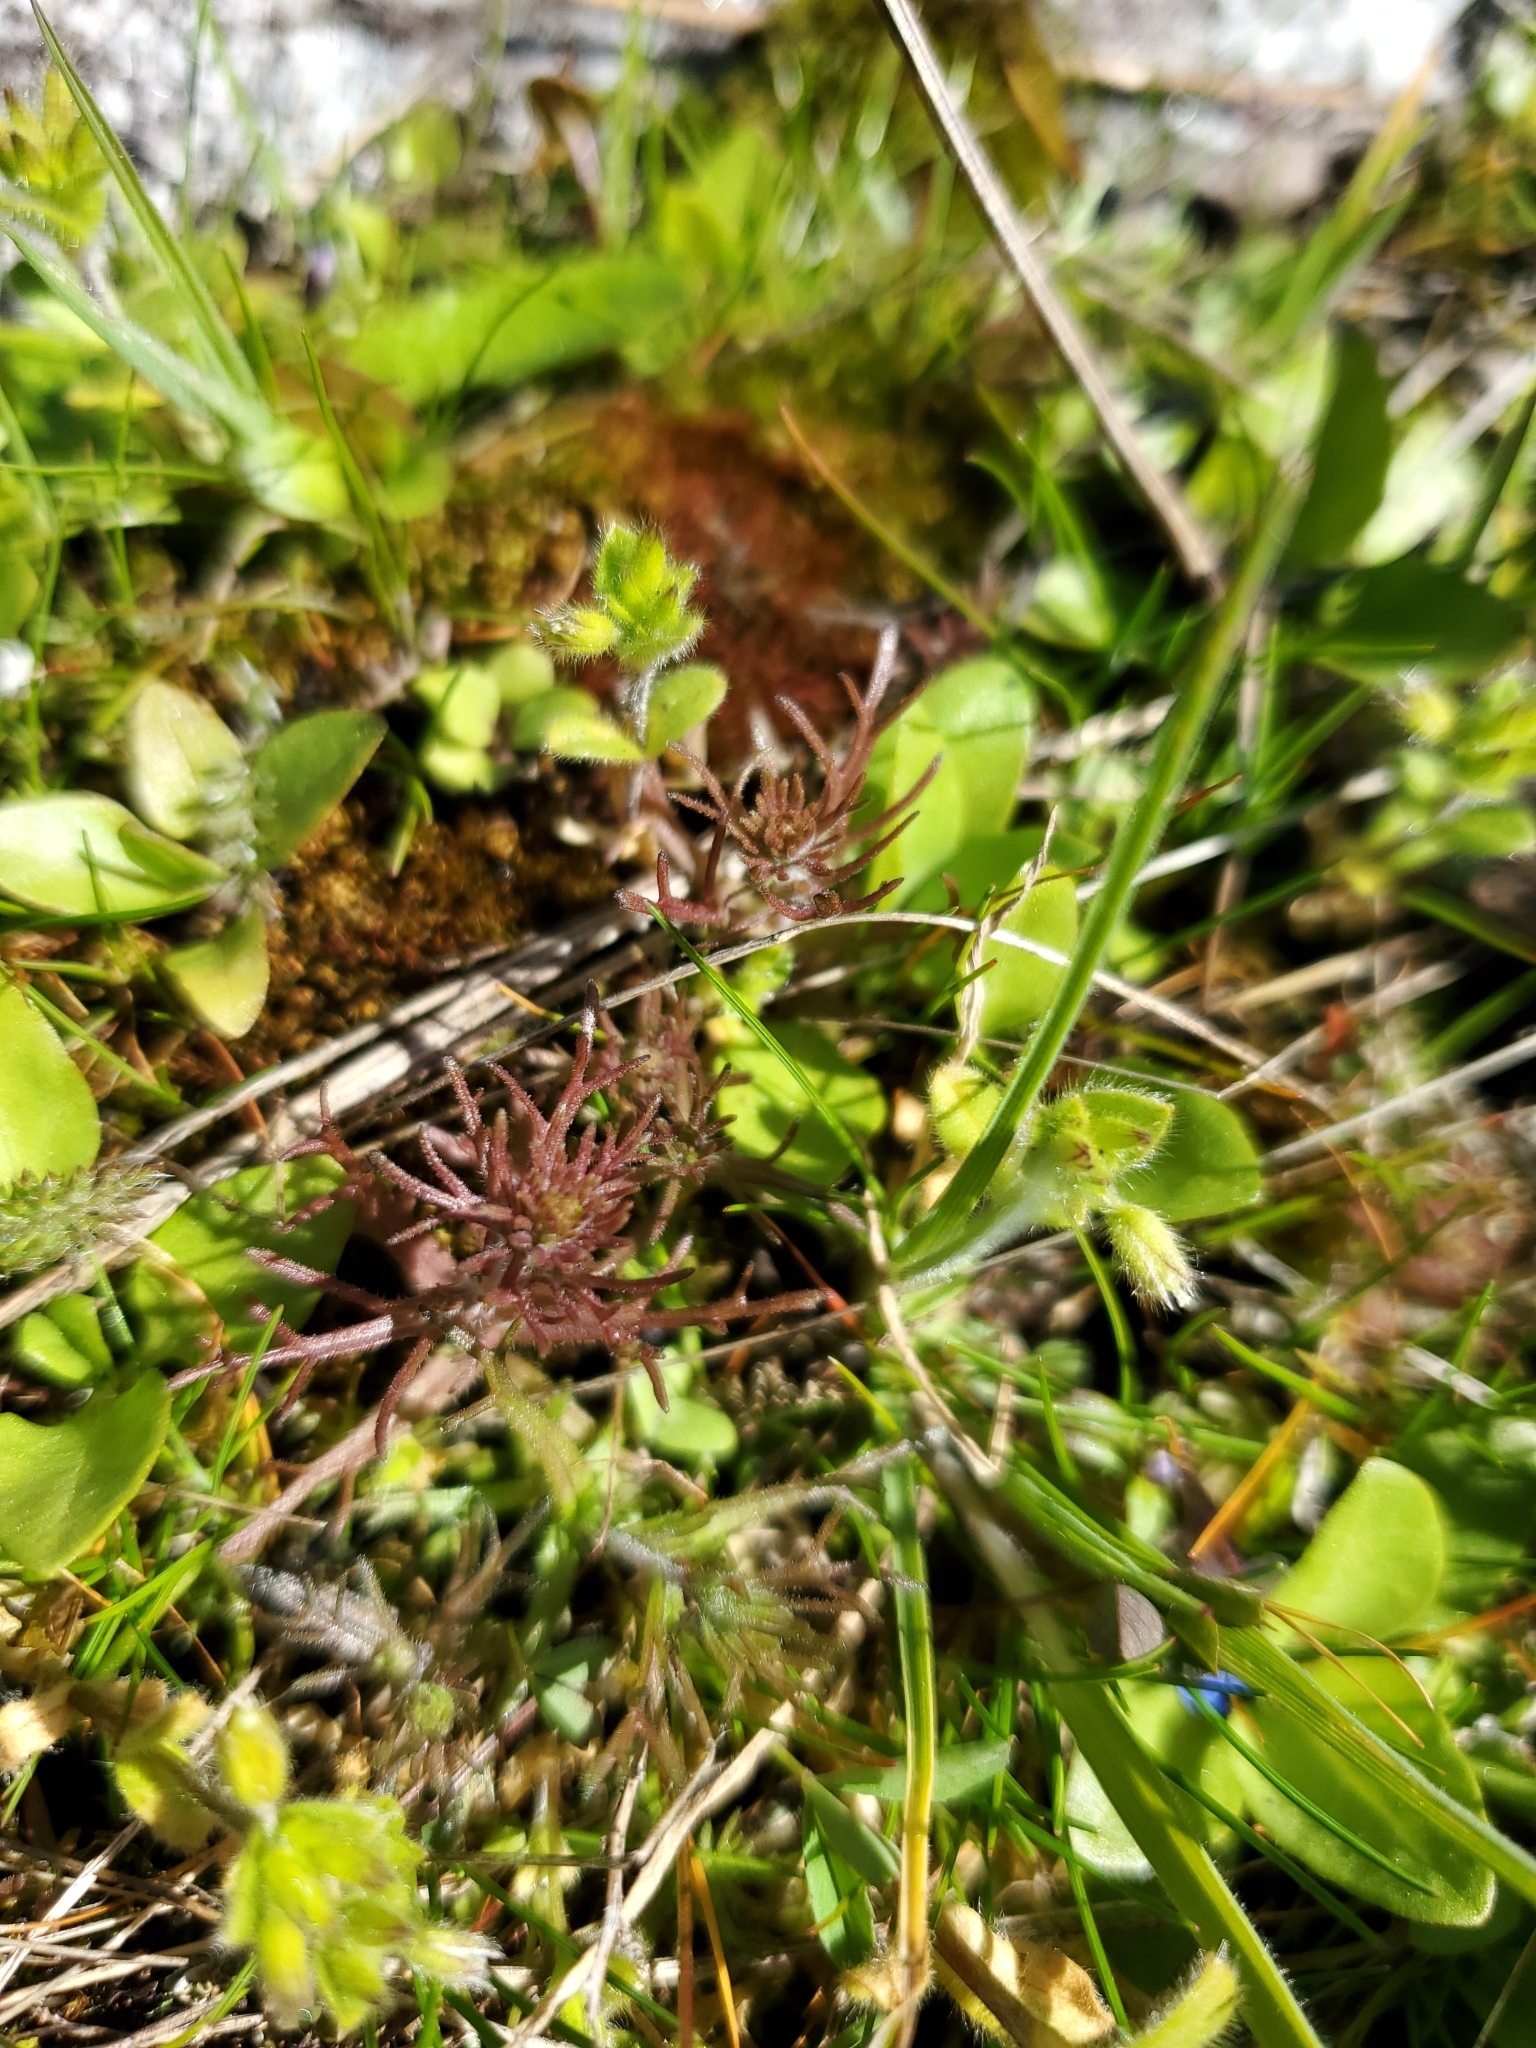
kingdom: Plantae
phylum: Tracheophyta
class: Magnoliopsida
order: Lamiales
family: Orobanchaceae
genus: Triphysaria
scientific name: Triphysaria pusilla
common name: Dwarf false owl-clover
